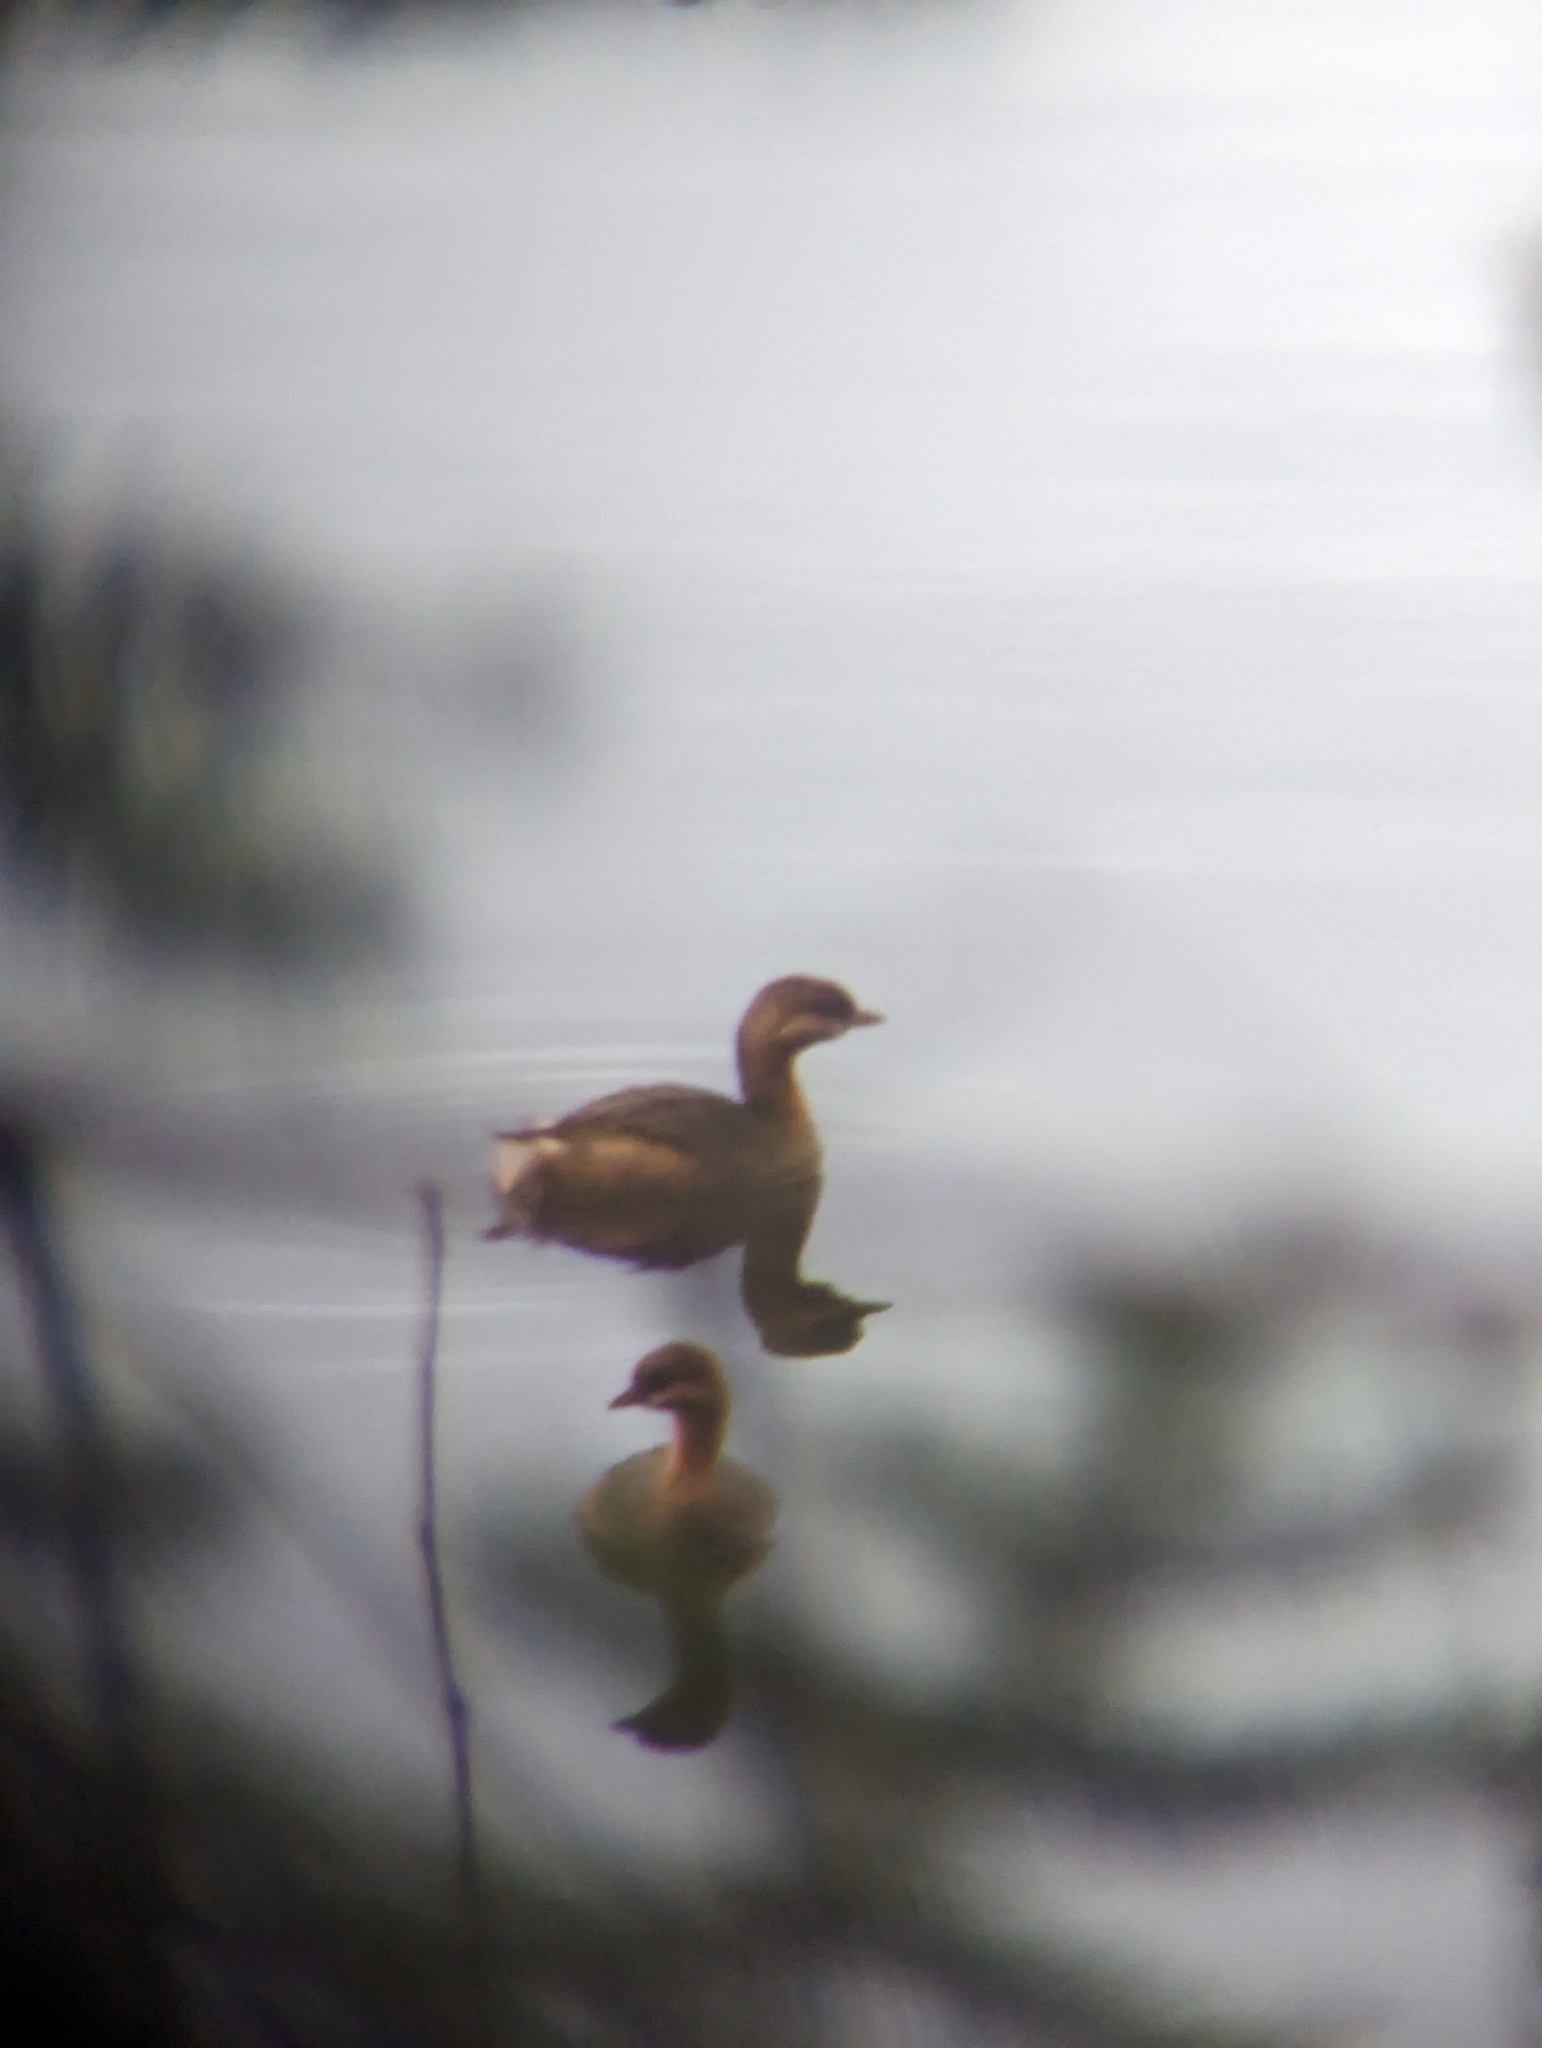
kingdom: Animalia
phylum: Chordata
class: Aves
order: Podicipediformes
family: Podicipedidae
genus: Podilymbus
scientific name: Podilymbus podiceps
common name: Pied-billed grebe
